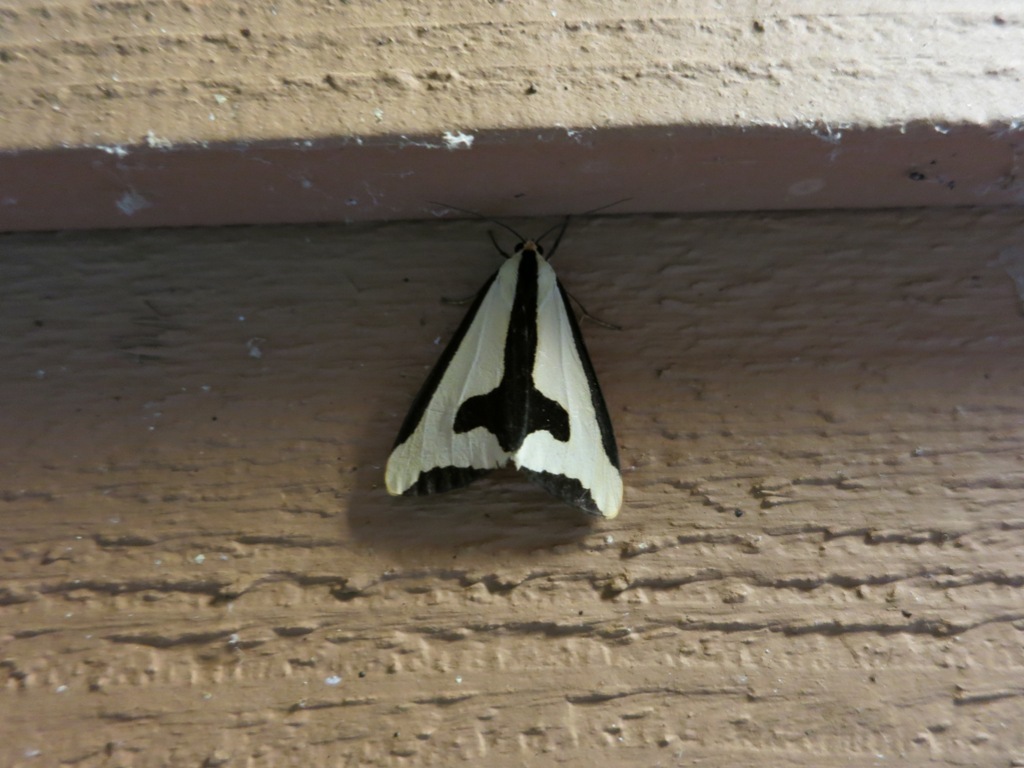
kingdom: Animalia
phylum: Arthropoda
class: Insecta
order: Lepidoptera
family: Erebidae
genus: Haploa
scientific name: Haploa clymene
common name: Clymene moth
